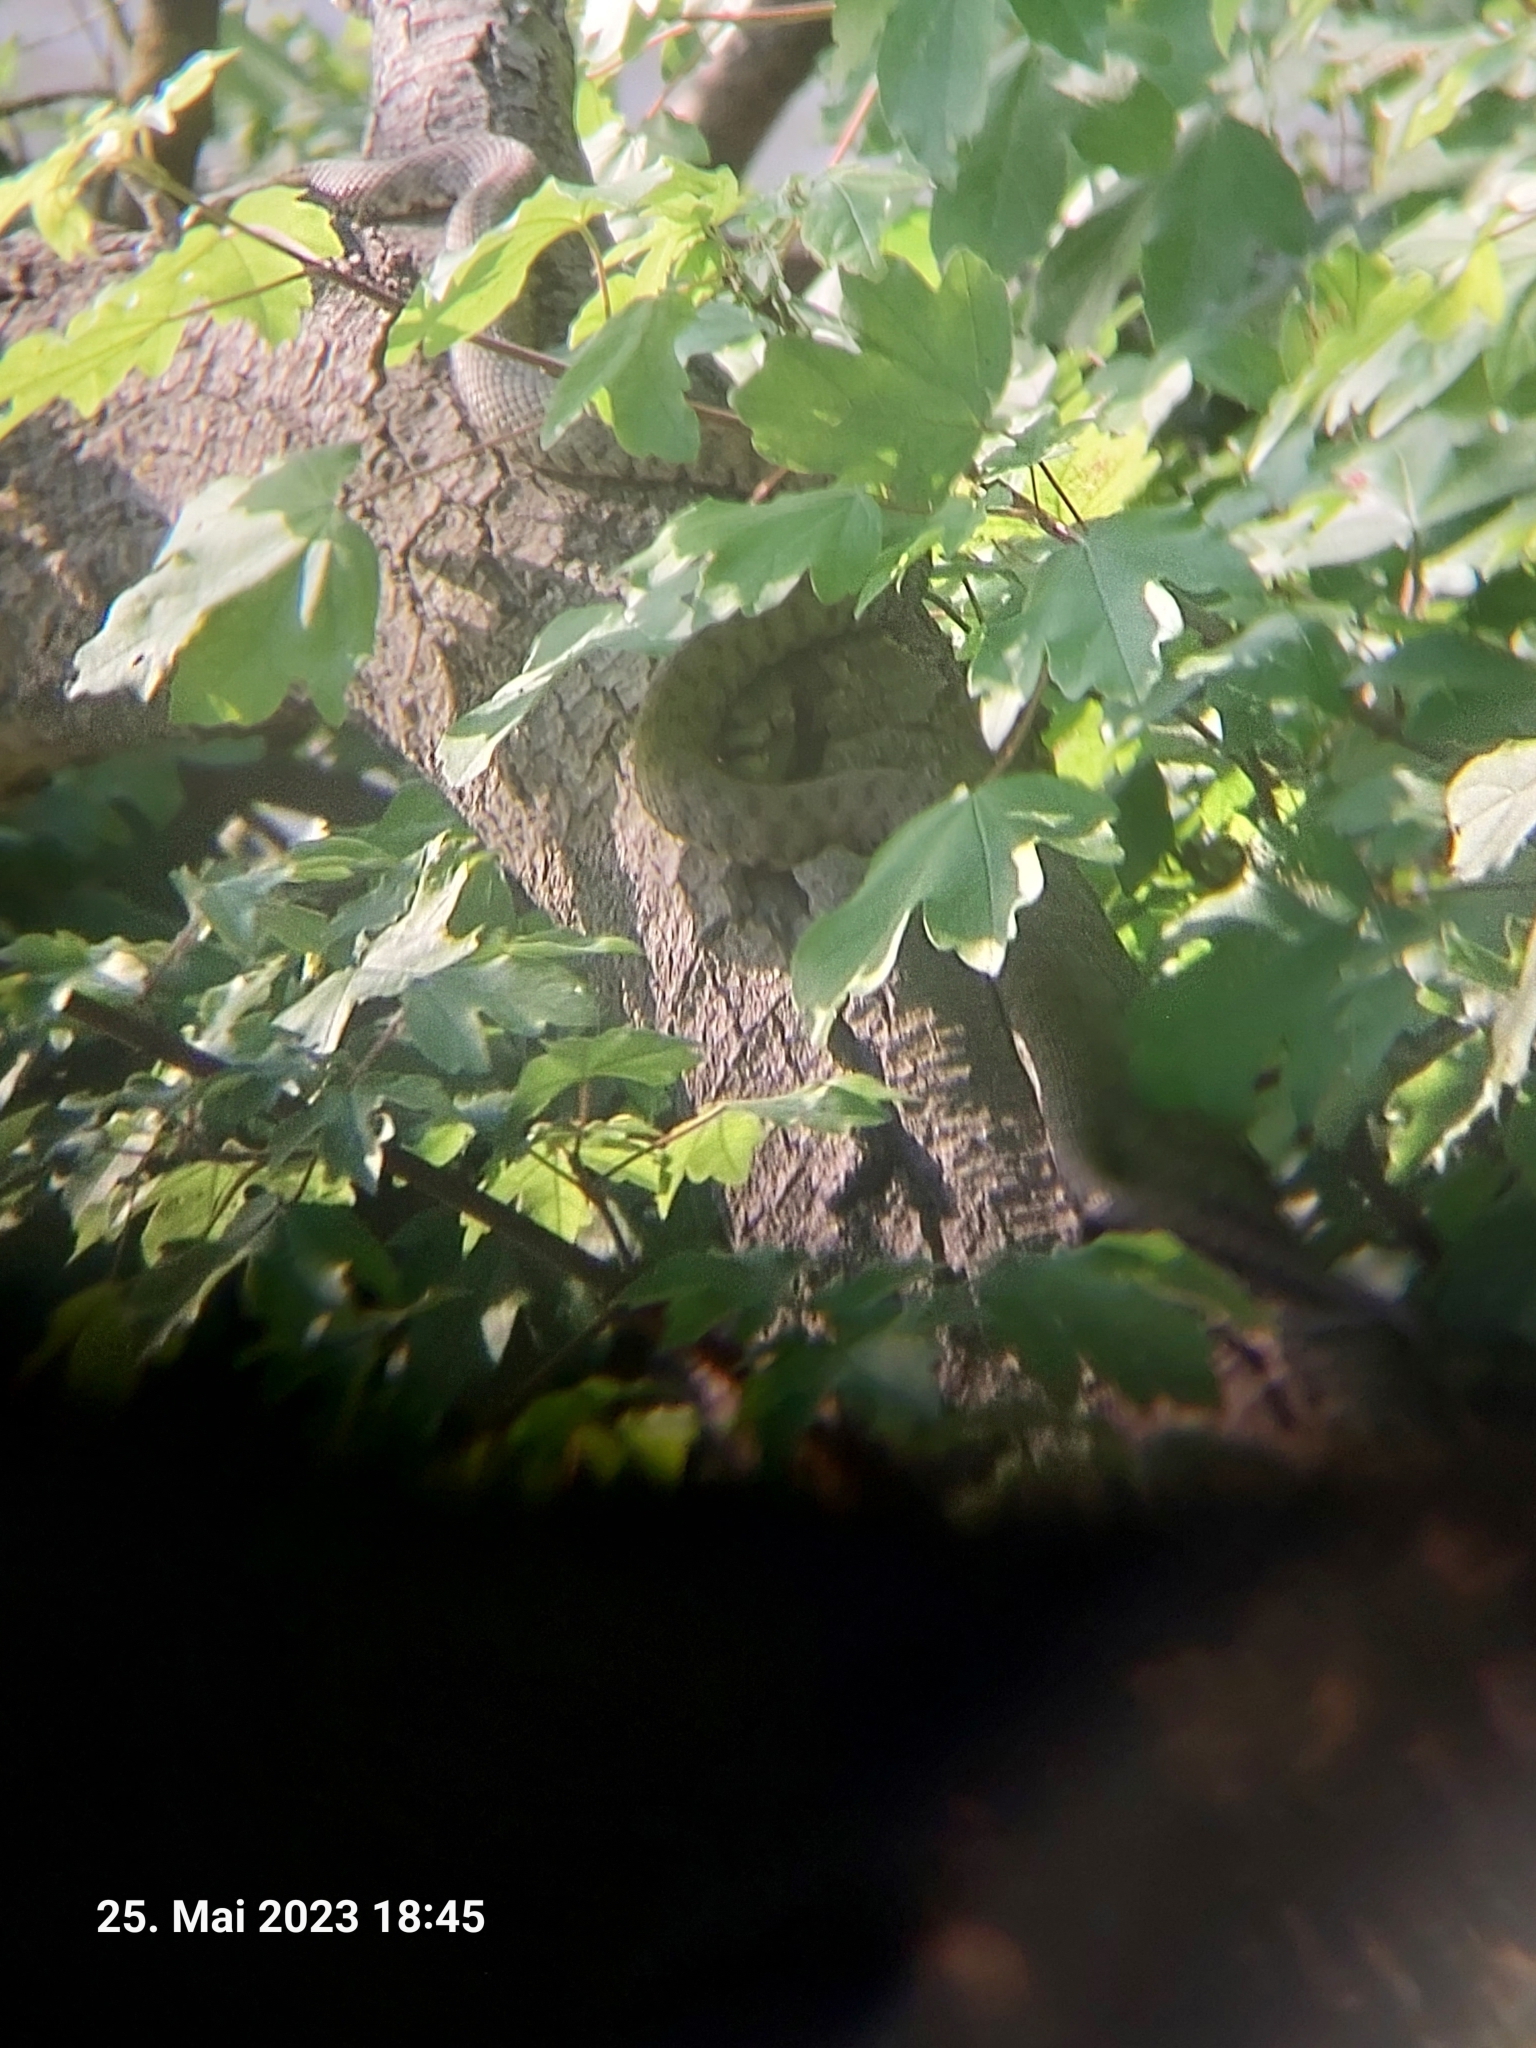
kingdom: Animalia
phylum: Chordata
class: Squamata
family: Colubridae
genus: Natrix
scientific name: Natrix tessellata
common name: Dice snake
